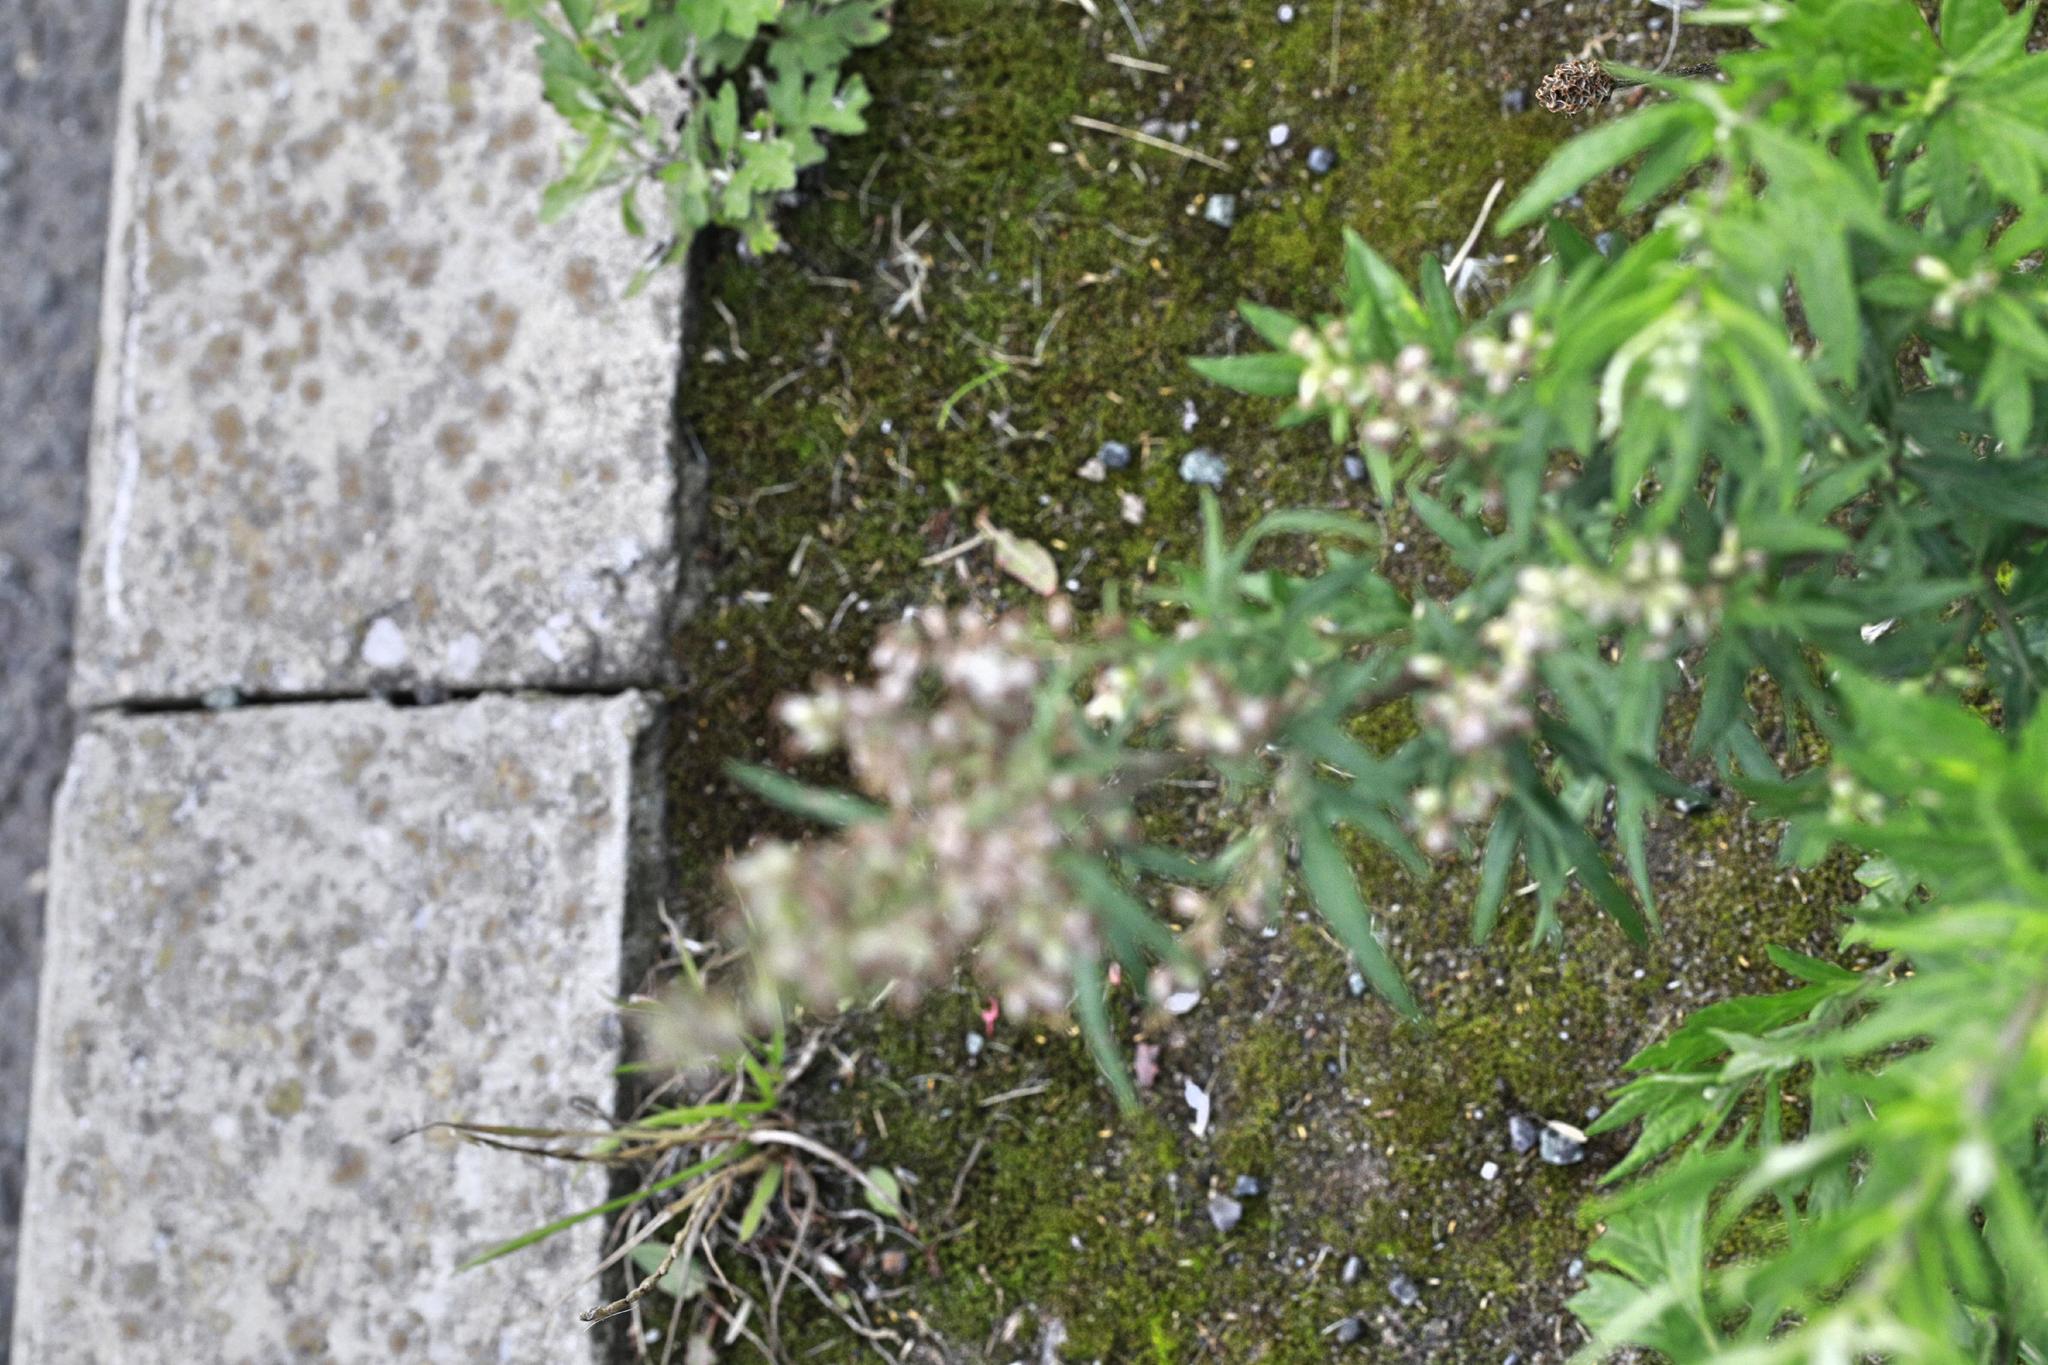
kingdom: Plantae
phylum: Tracheophyta
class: Magnoliopsida
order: Asterales
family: Asteraceae
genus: Artemisia
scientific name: Artemisia vulgaris
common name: Mugwort
